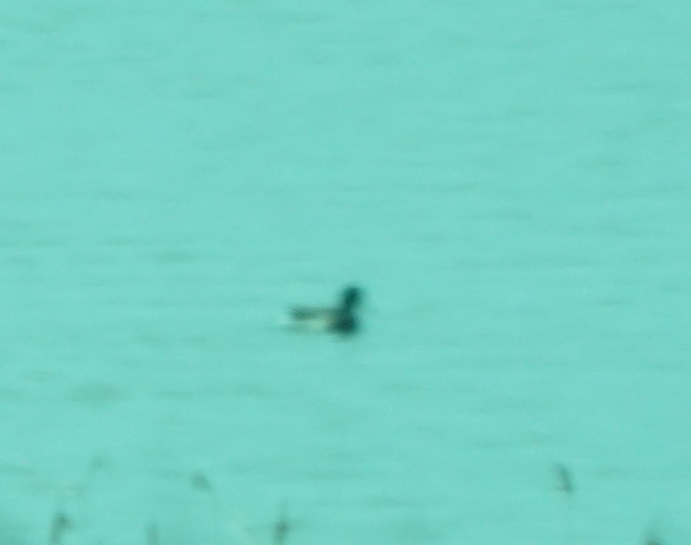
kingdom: Animalia
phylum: Chordata
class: Aves
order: Anseriformes
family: Anatidae
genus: Anas
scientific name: Anas platyrhynchos
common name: Mallard
